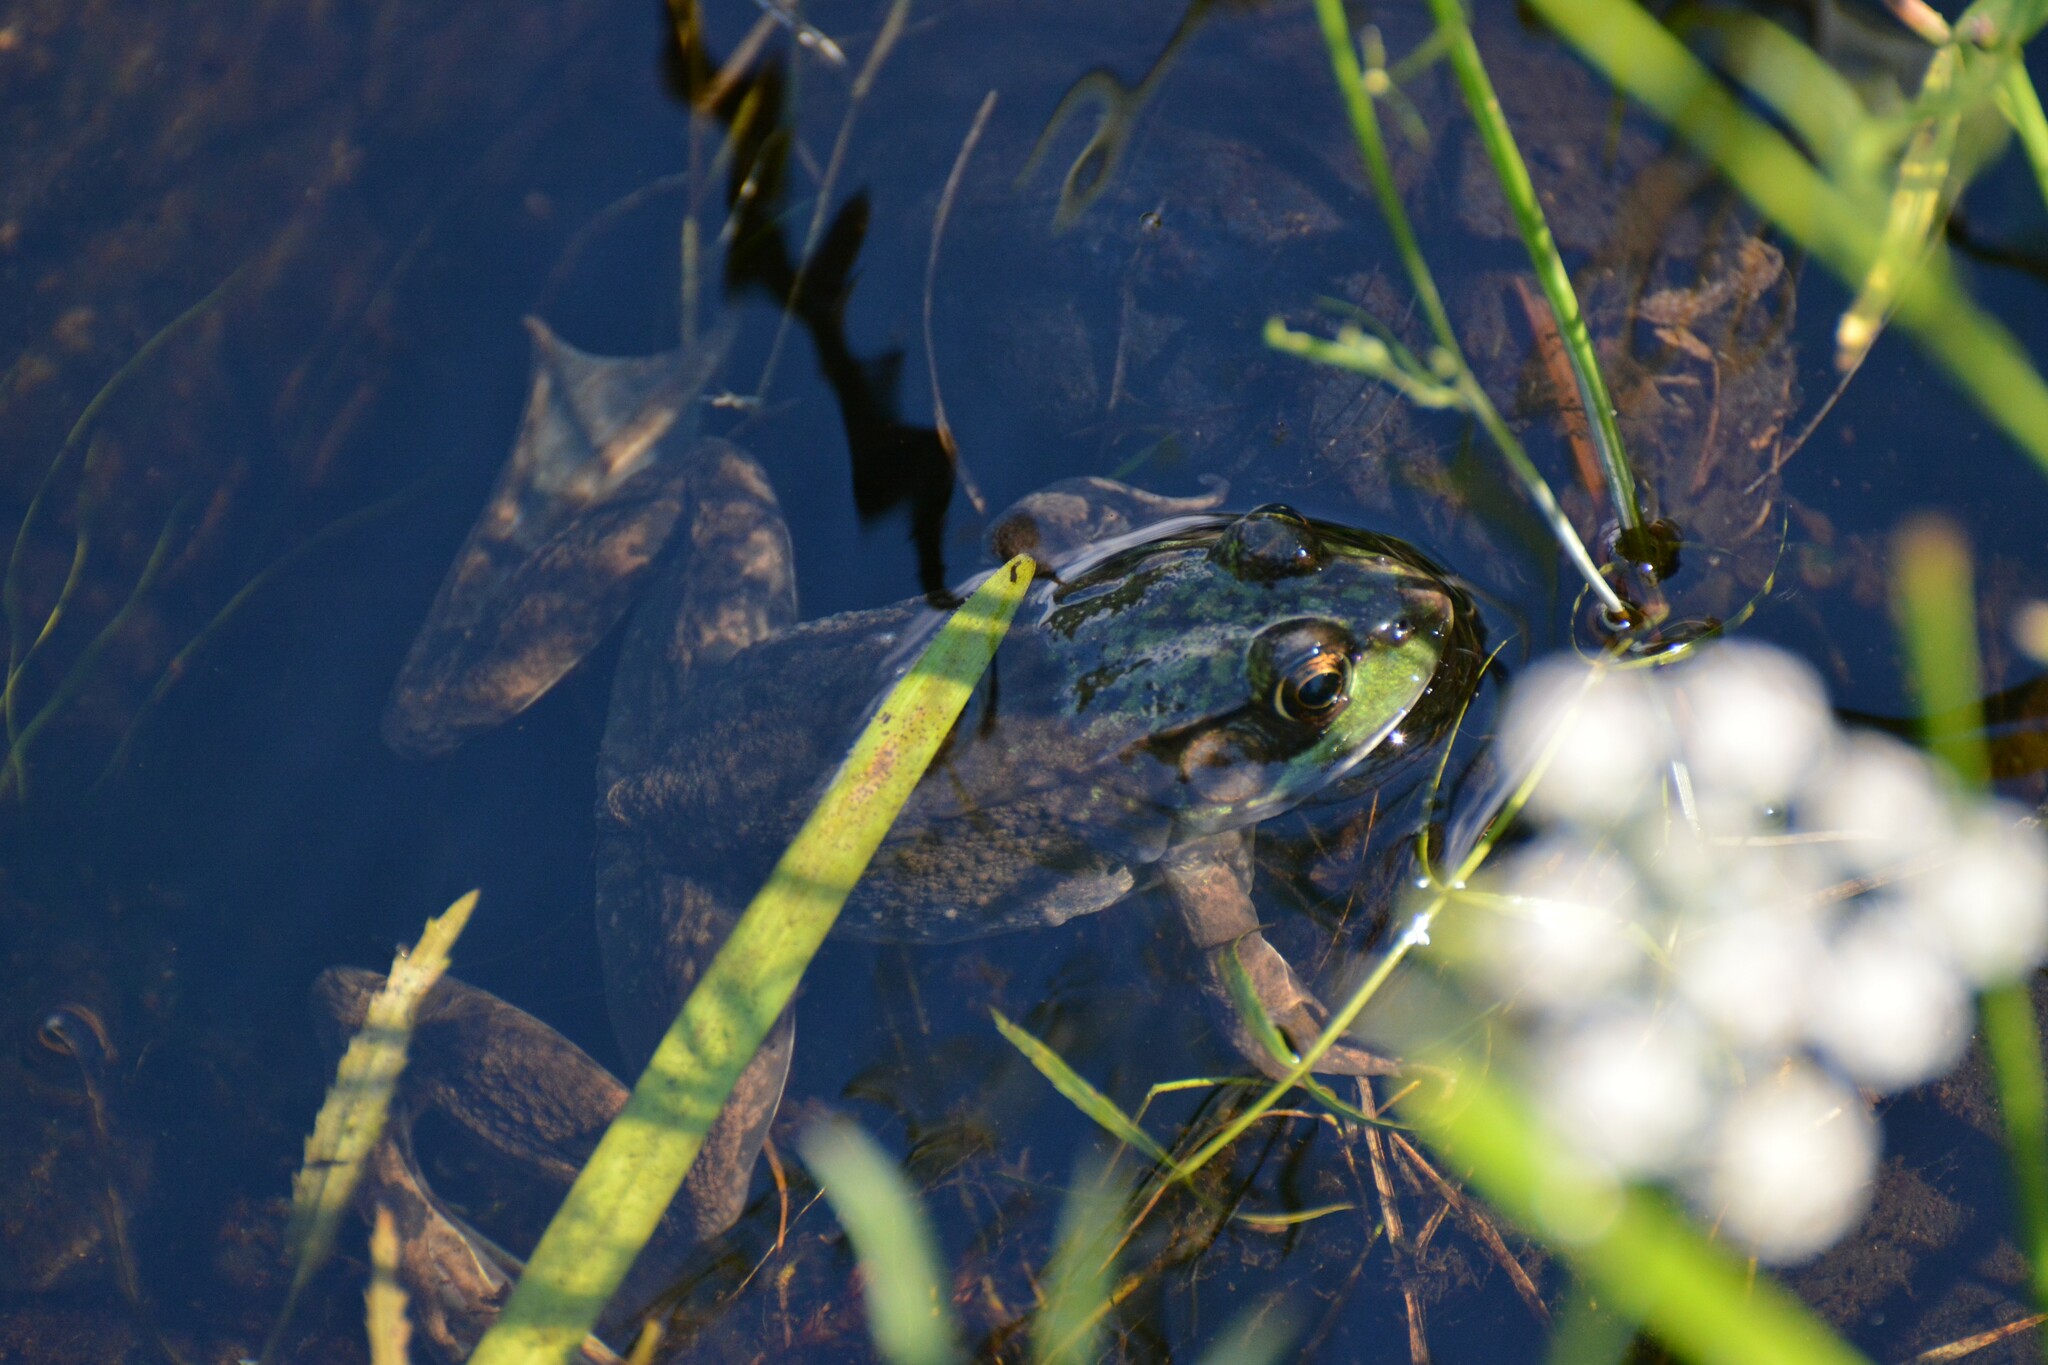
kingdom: Animalia
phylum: Chordata
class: Amphibia
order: Anura
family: Ranidae
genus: Lithobates
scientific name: Lithobates clamitans
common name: Green frog
